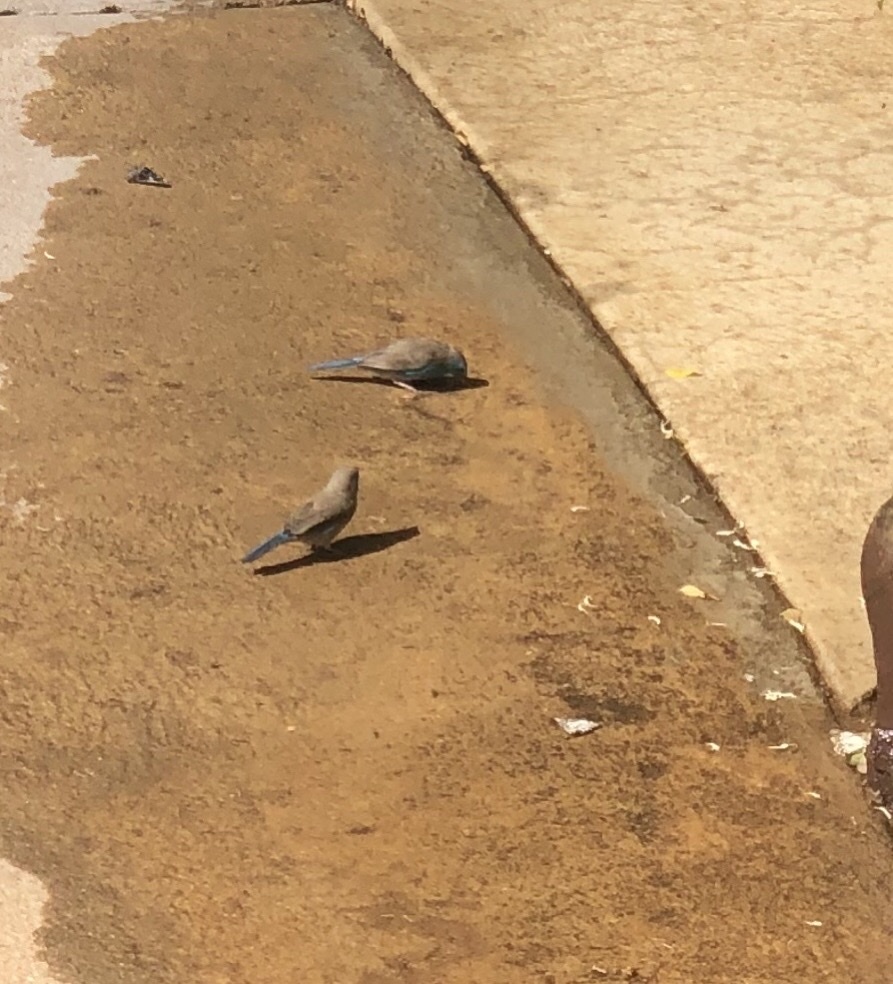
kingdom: Animalia
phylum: Chordata
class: Aves
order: Passeriformes
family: Estrildidae
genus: Uraeginthus
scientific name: Uraeginthus angolensis
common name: Blue waxbill
